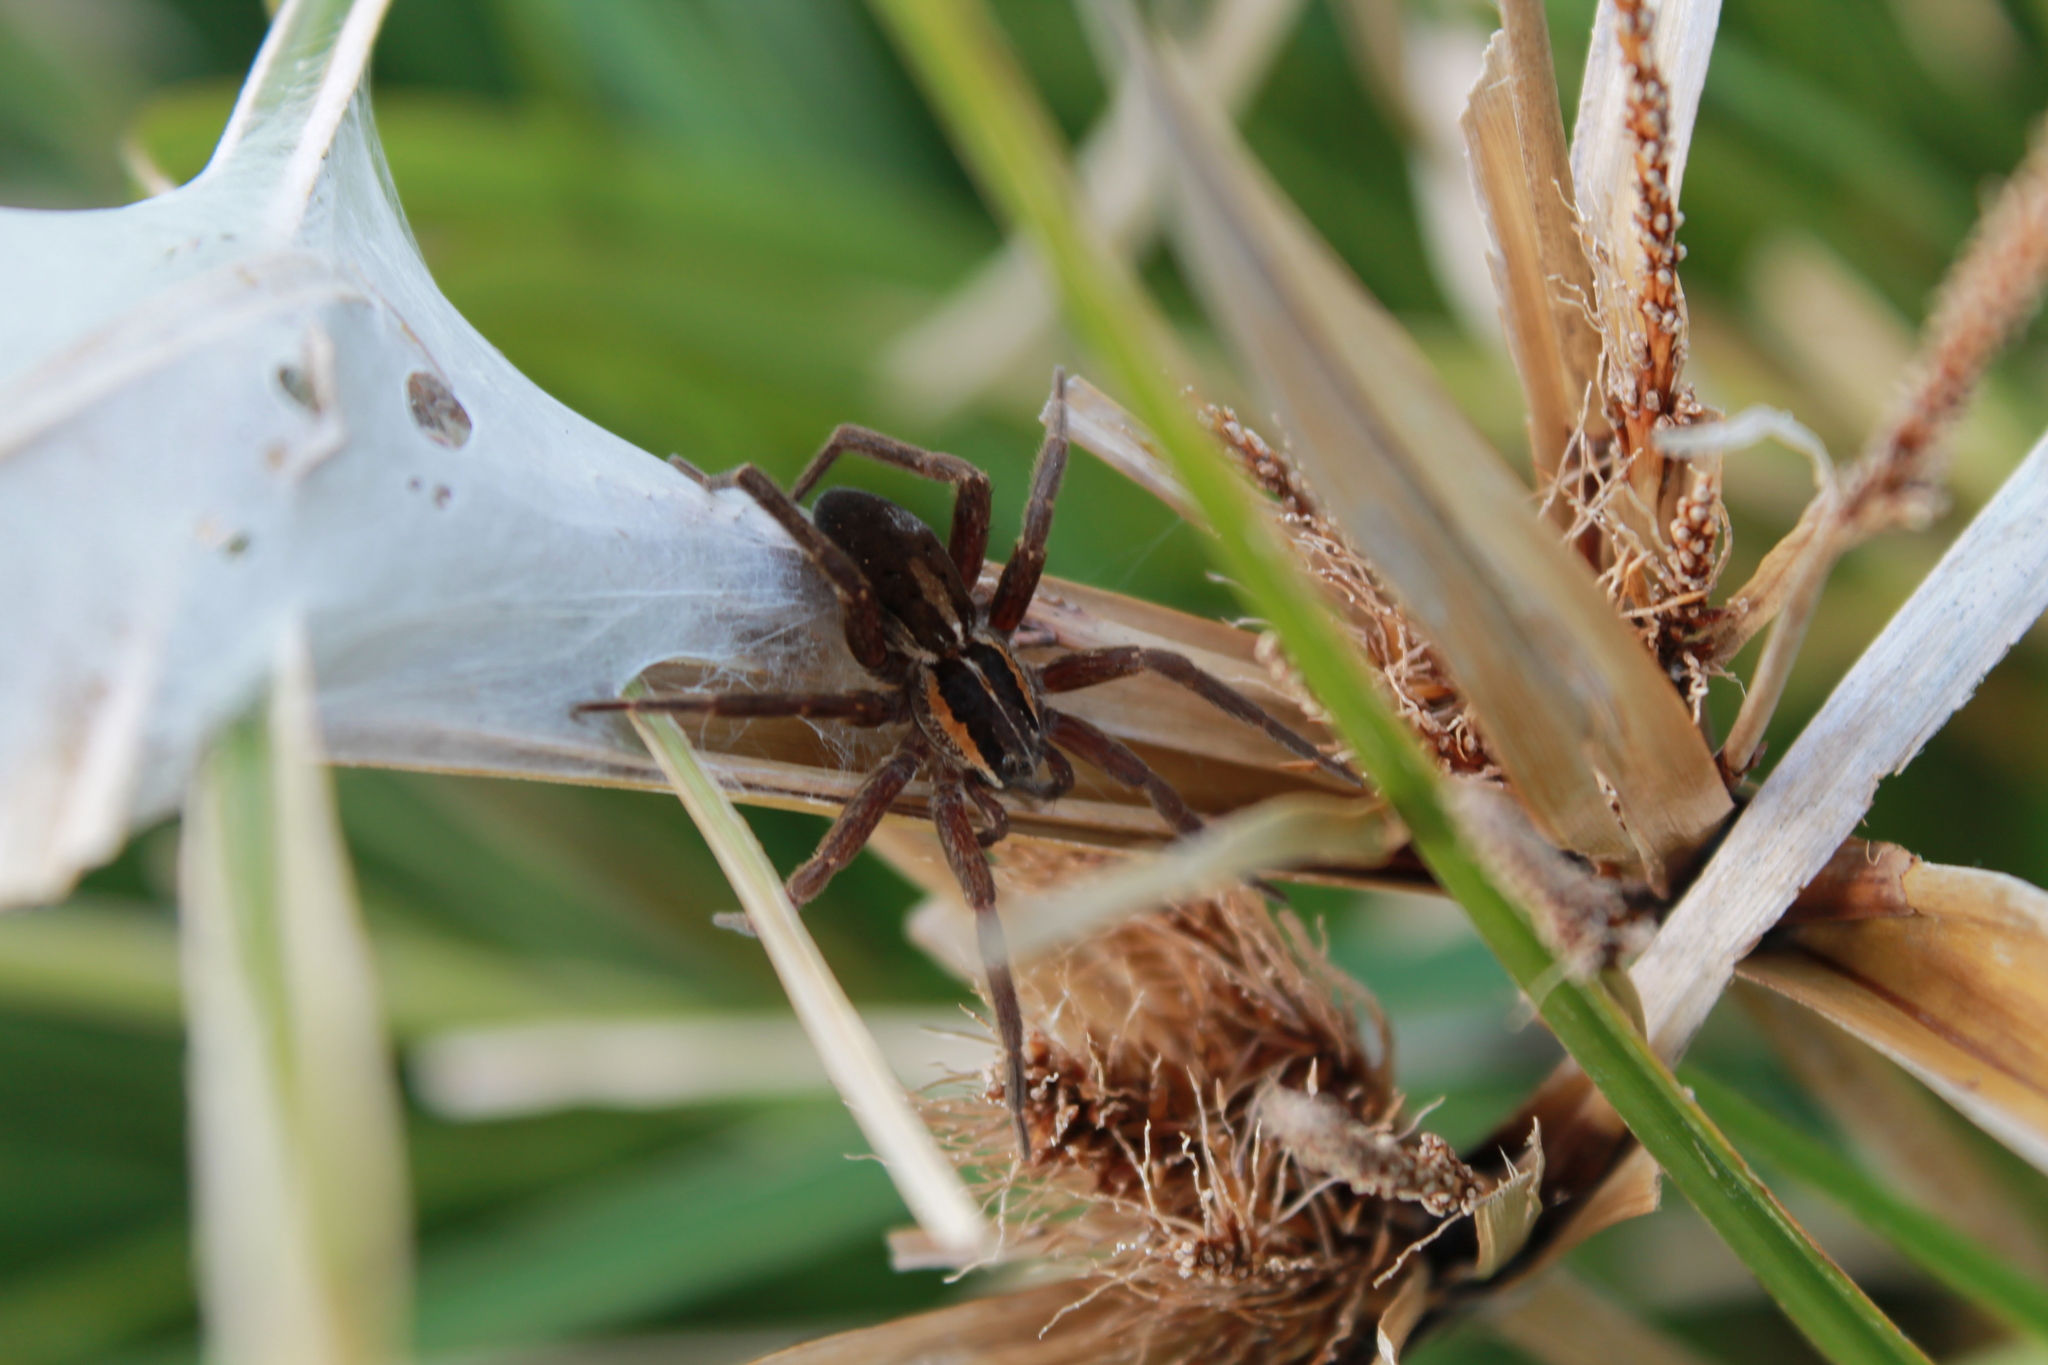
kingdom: Animalia
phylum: Arthropoda
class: Arachnida
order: Araneae
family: Pisauridae
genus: Dolomedes
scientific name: Dolomedes minor
